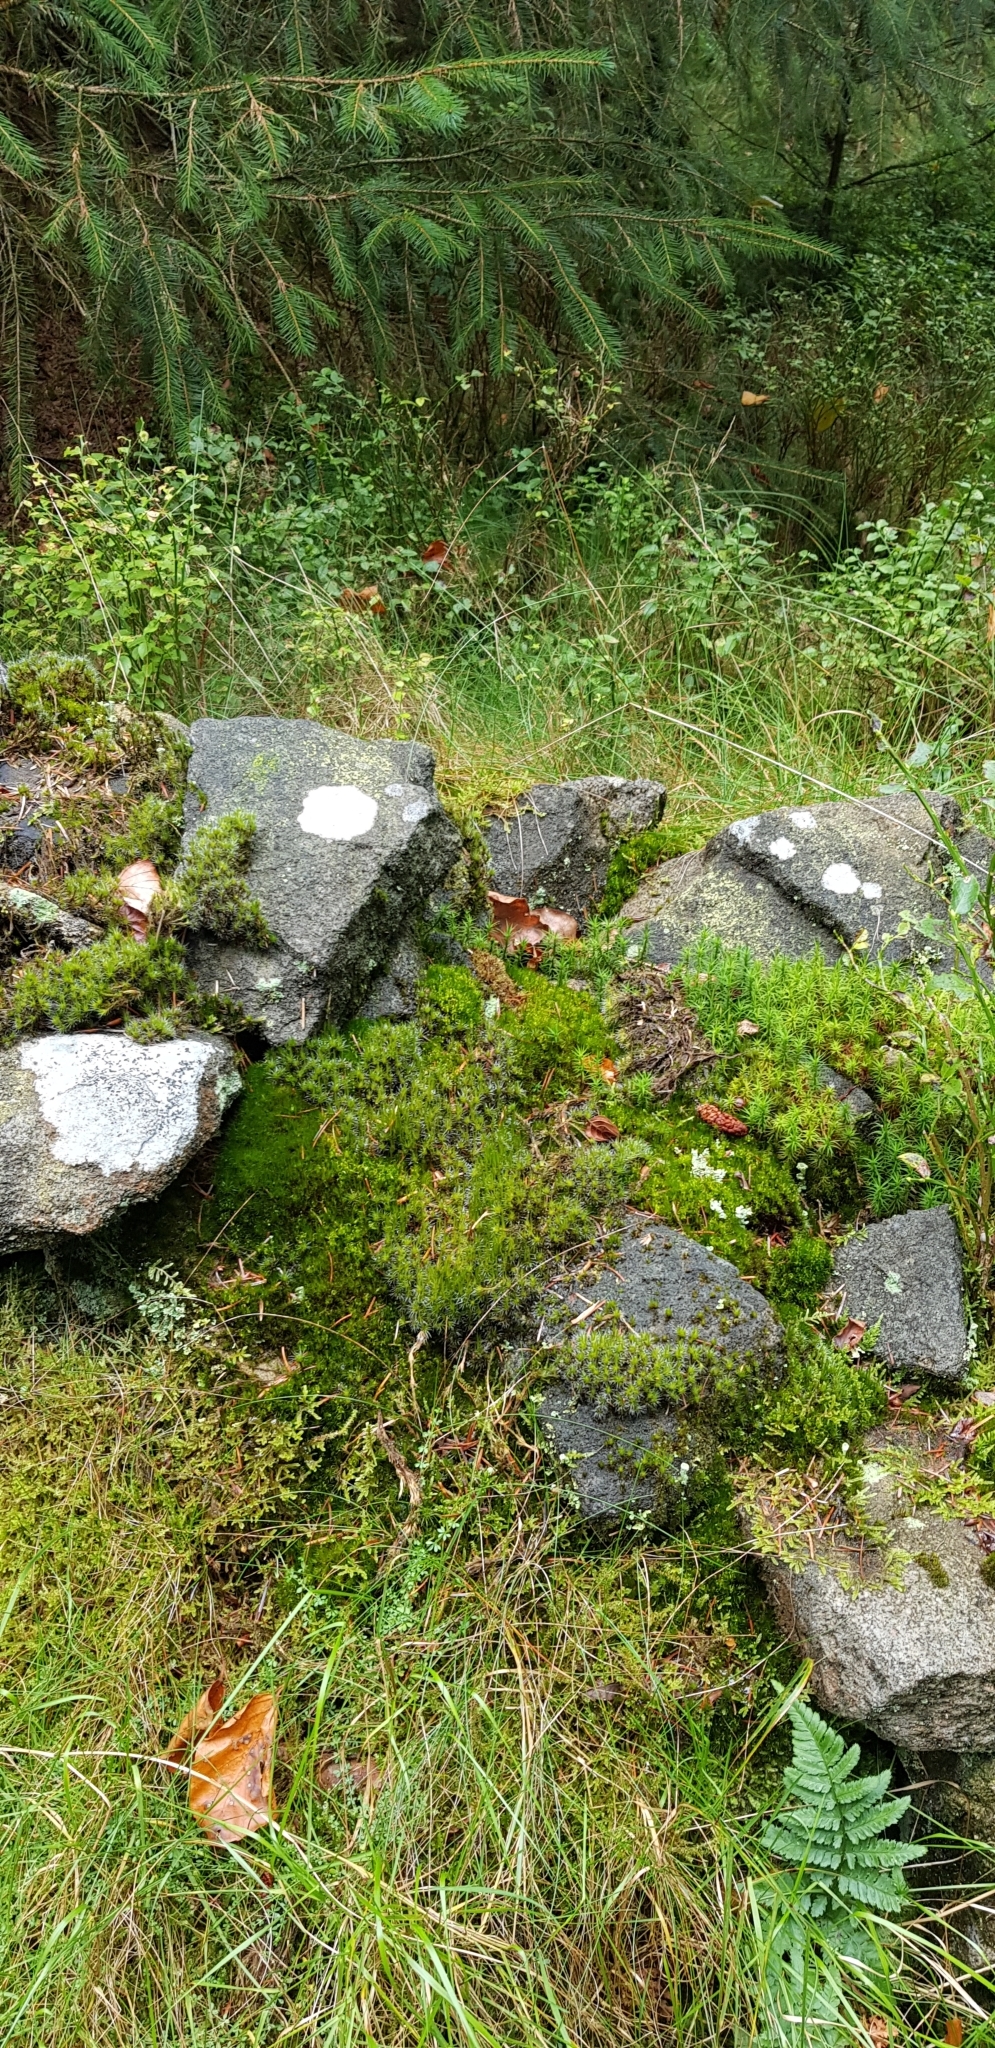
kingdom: Plantae
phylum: Bryophyta
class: Bryopsida
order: Dicranales
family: Leucobryaceae
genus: Campylopus
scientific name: Campylopus introflexus
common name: Heath star moss
